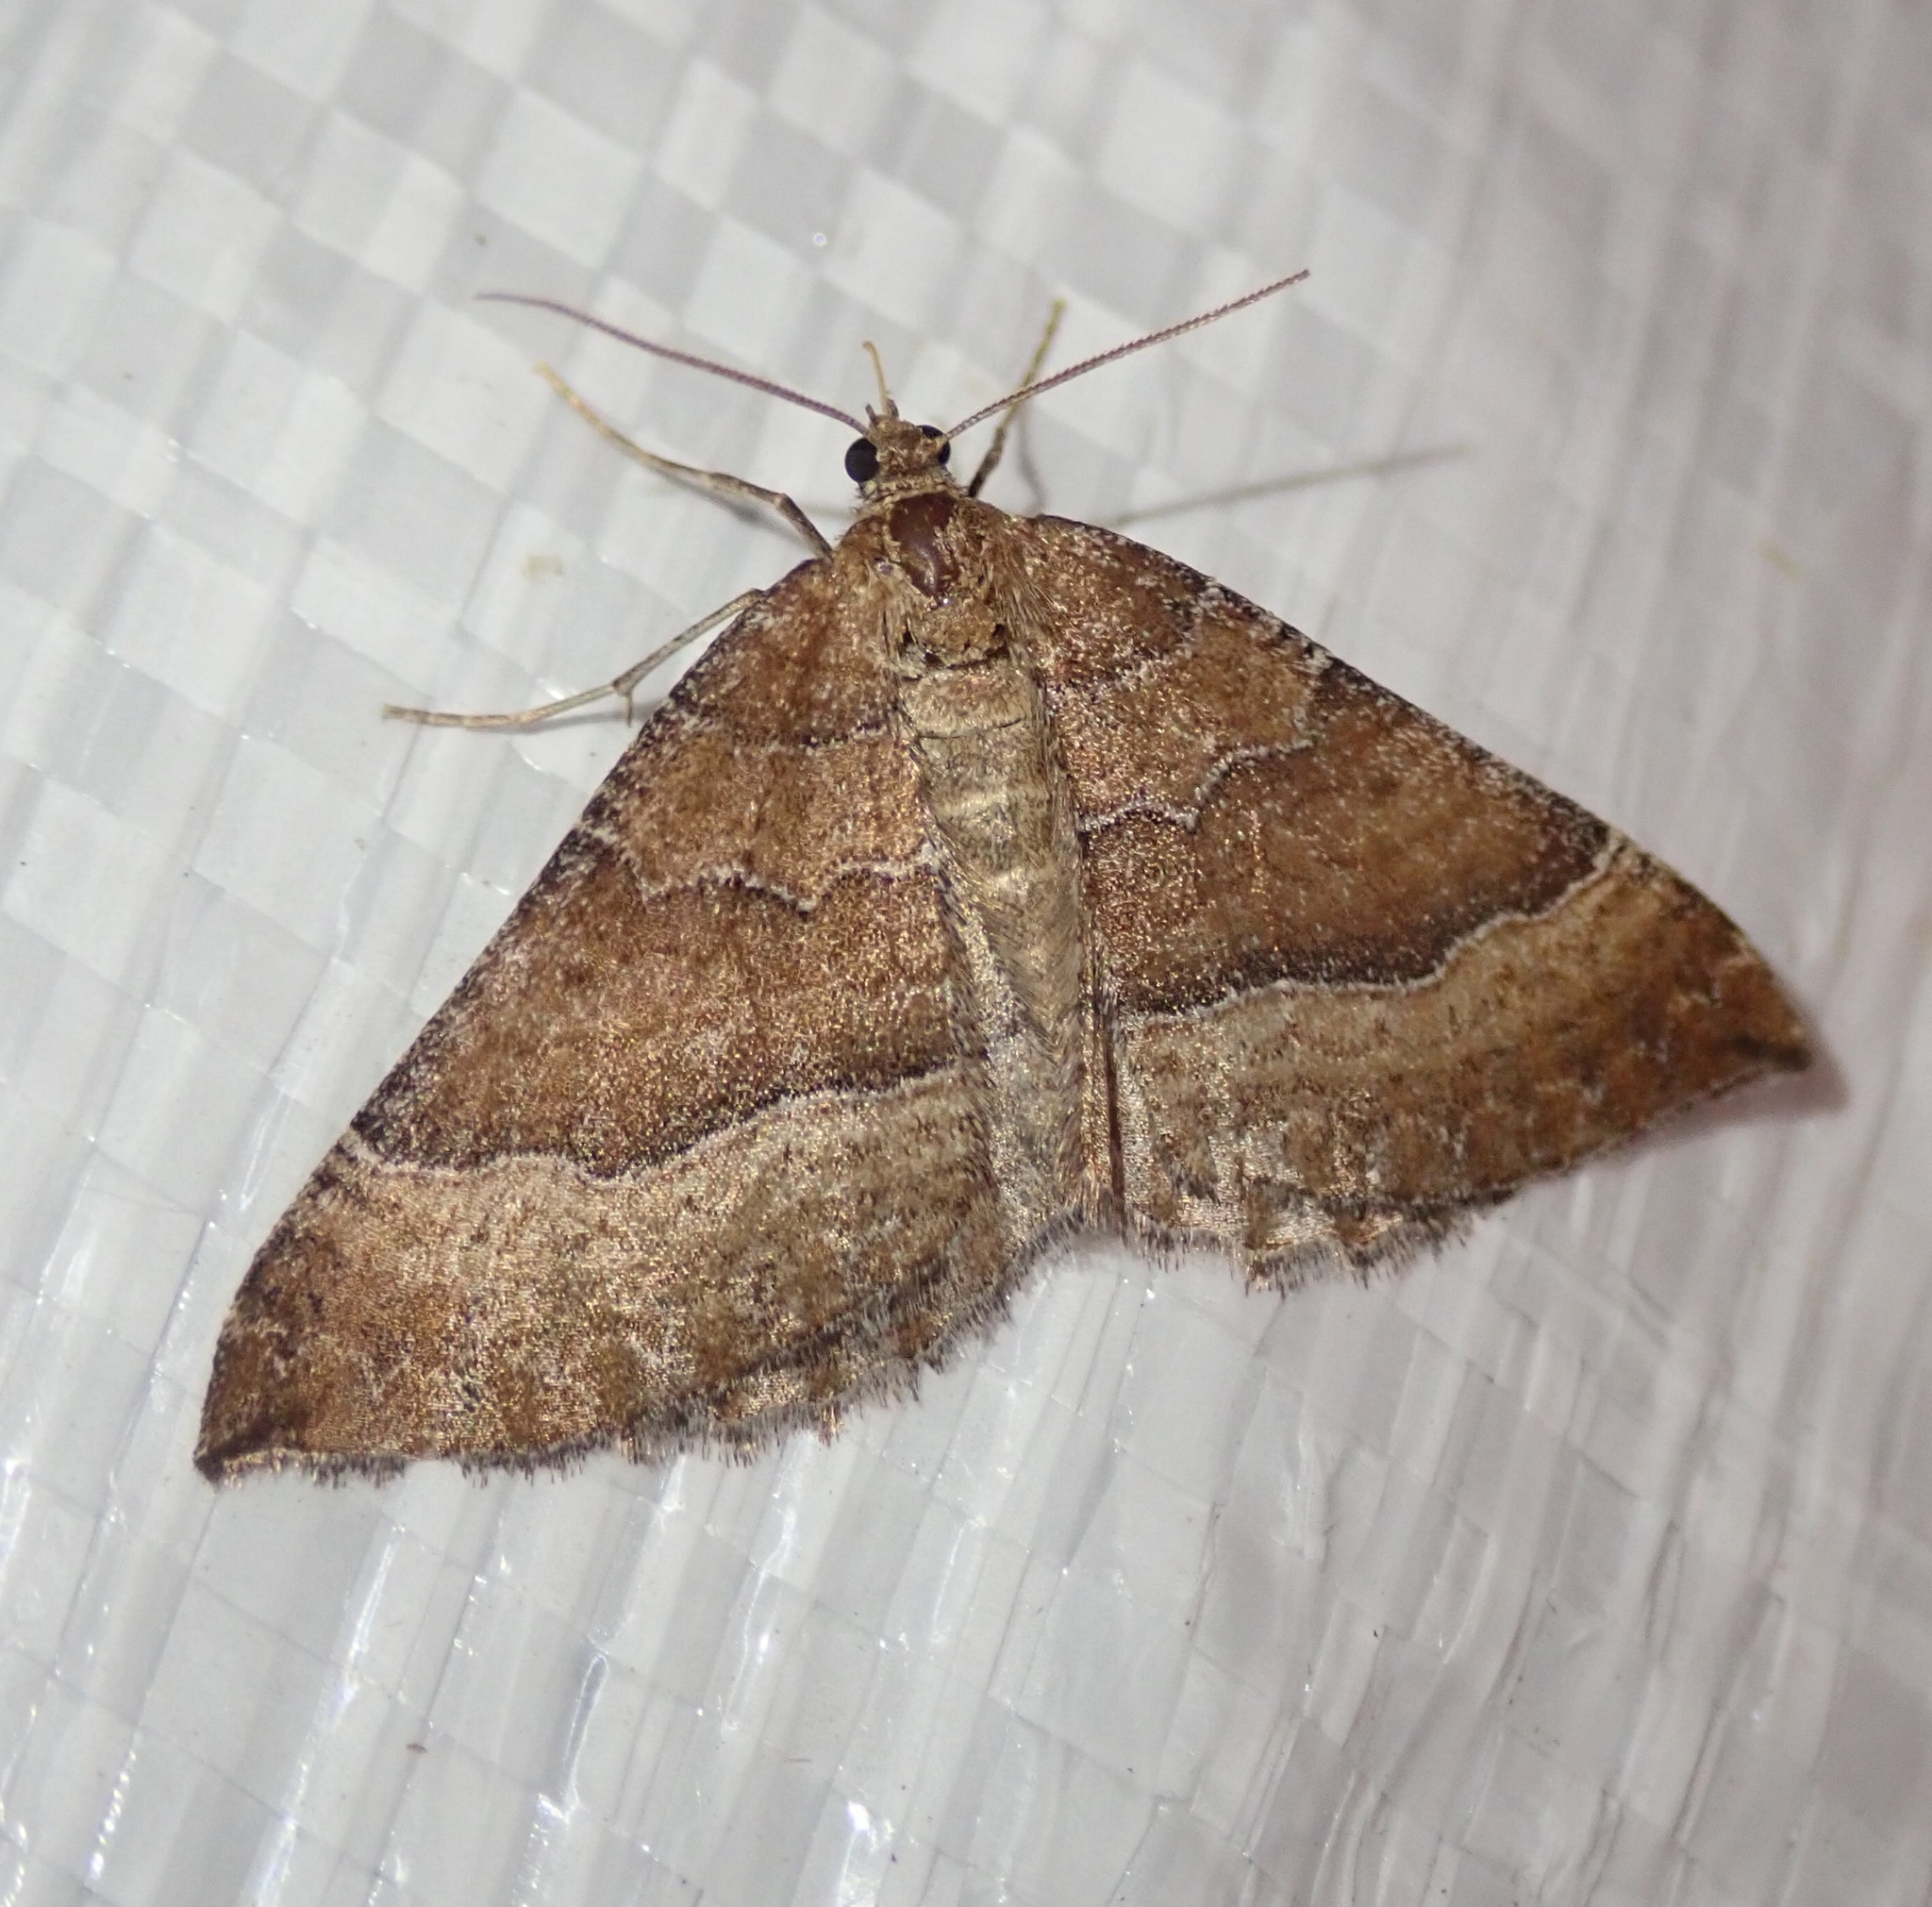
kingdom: Animalia
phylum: Arthropoda
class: Insecta
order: Lepidoptera
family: Geometridae
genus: Larentia
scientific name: Larentia clavaria
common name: Mallow
